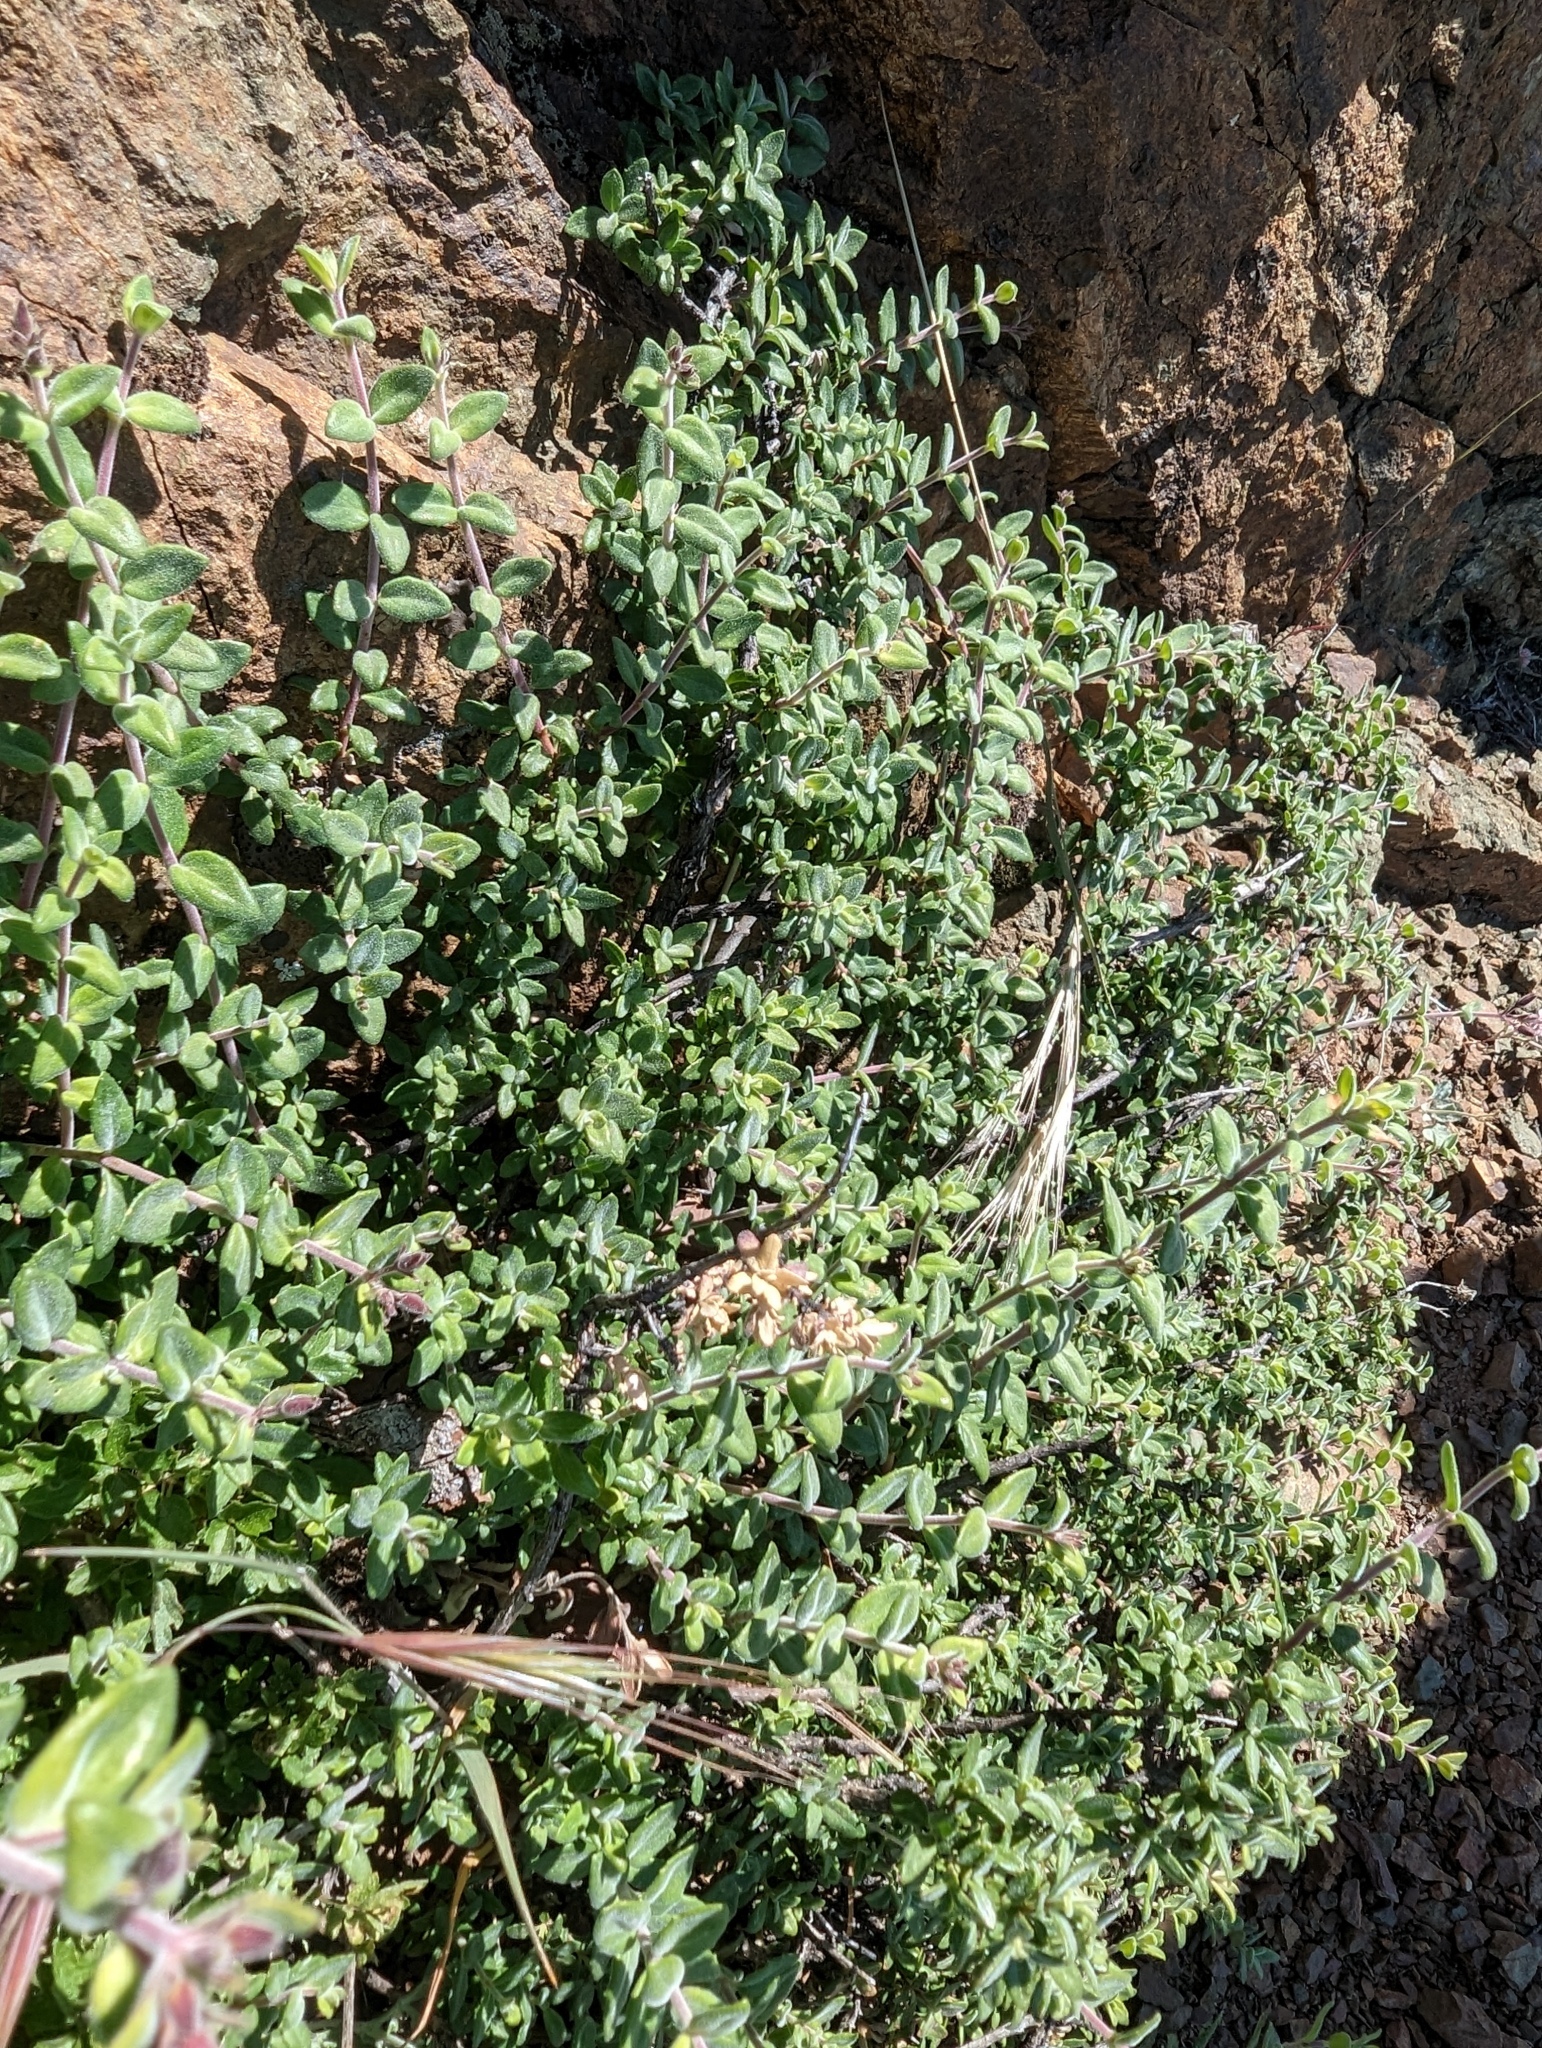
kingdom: Plantae
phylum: Tracheophyta
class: Magnoliopsida
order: Lamiales
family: Plantaginaceae
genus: Keckiella
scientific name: Keckiella corymbosa
